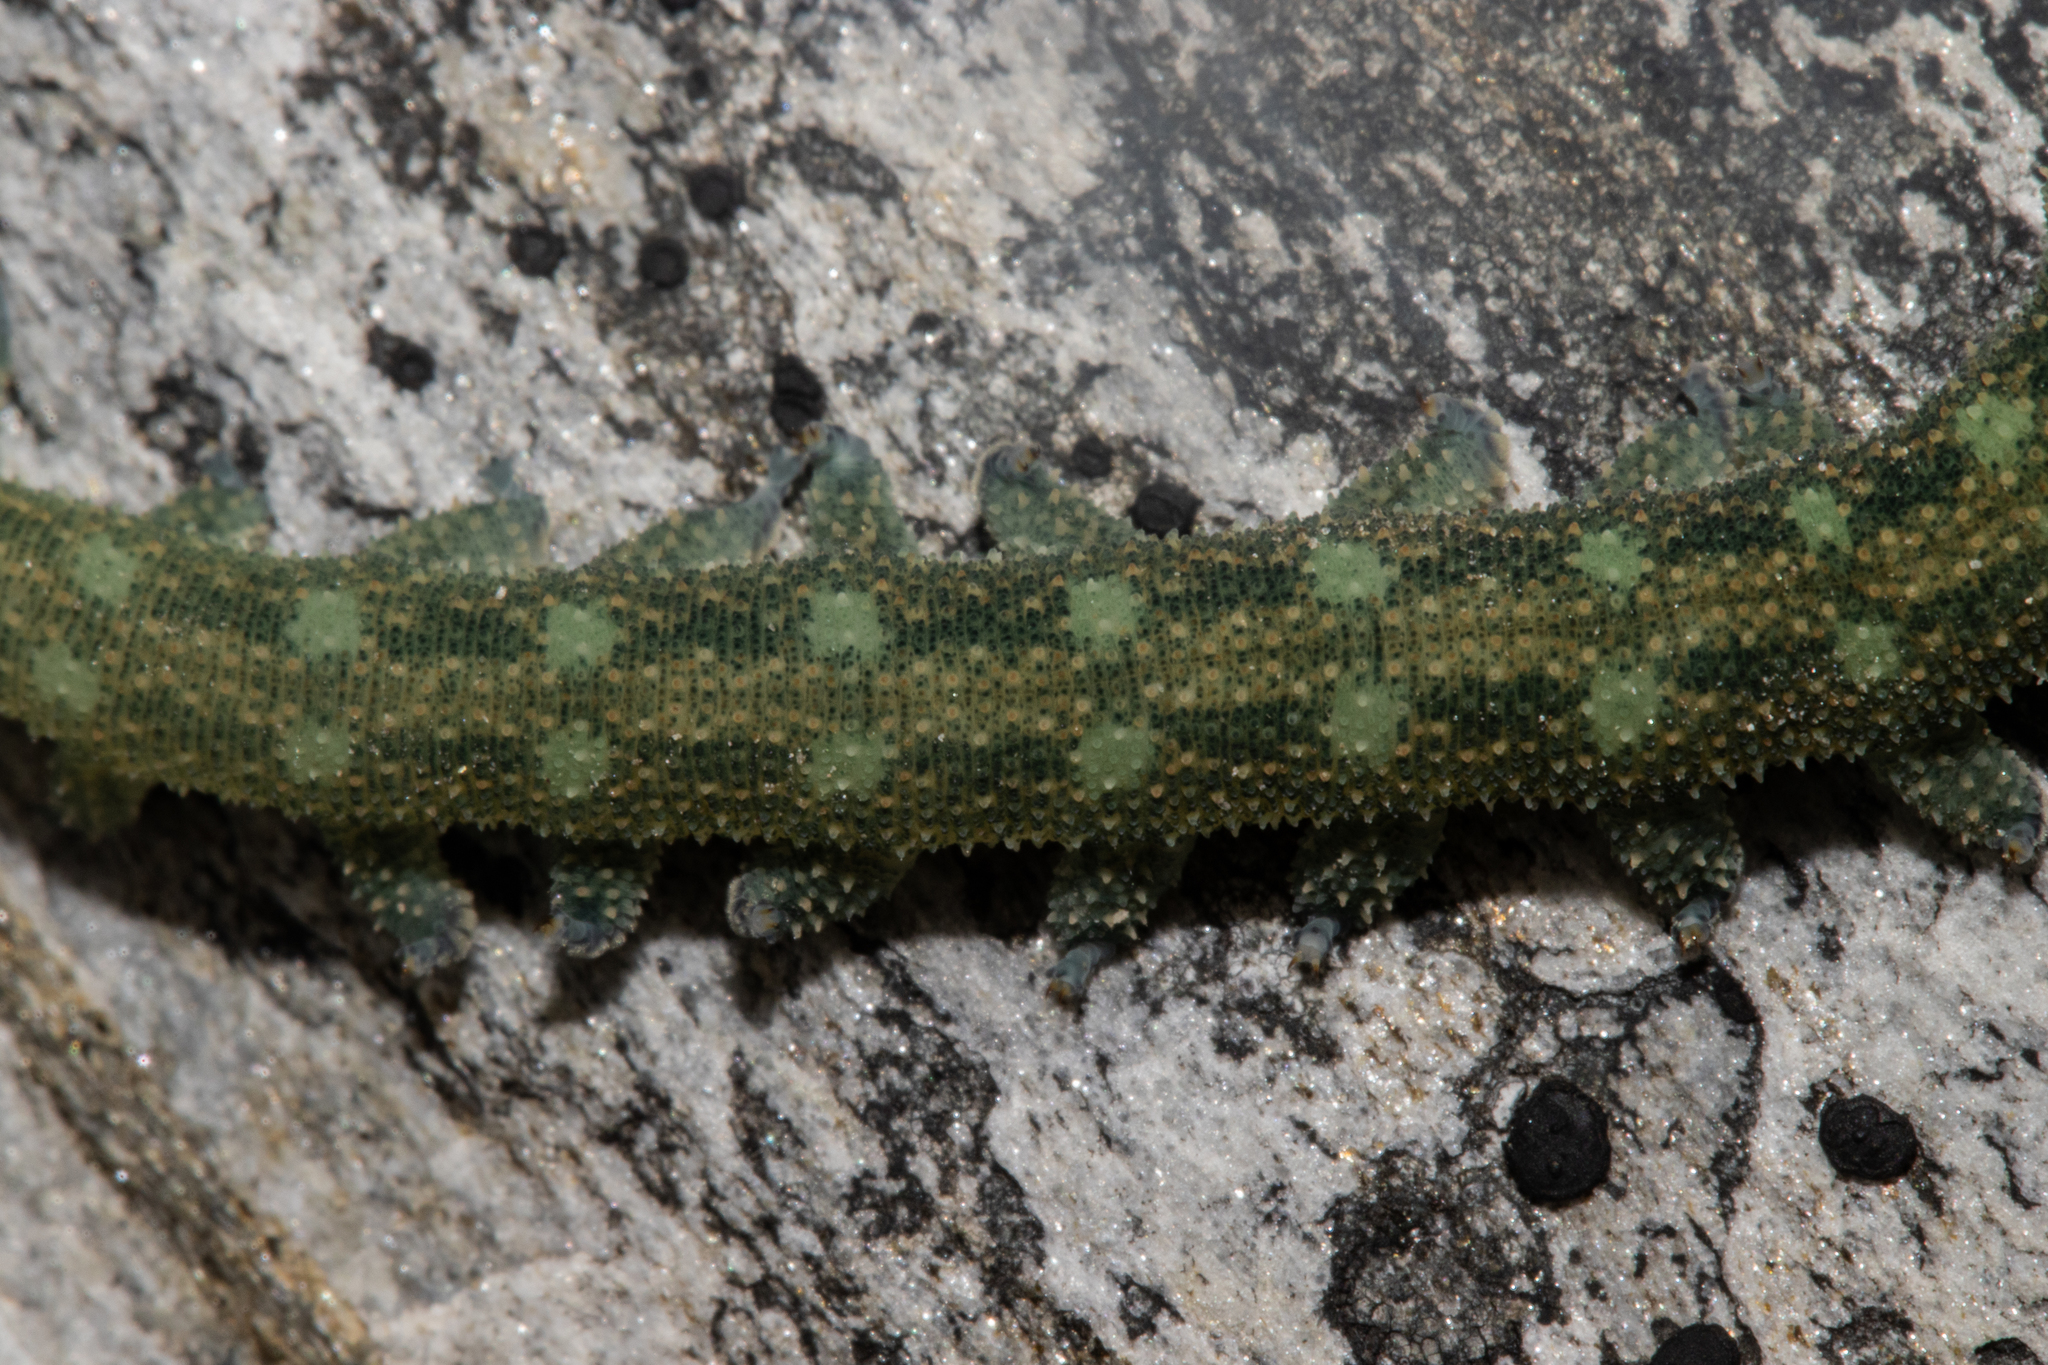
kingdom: Animalia
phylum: Onychophora
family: Peripatopsidae
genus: Ooperipatellus
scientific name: Ooperipatellus viridimaculatus
